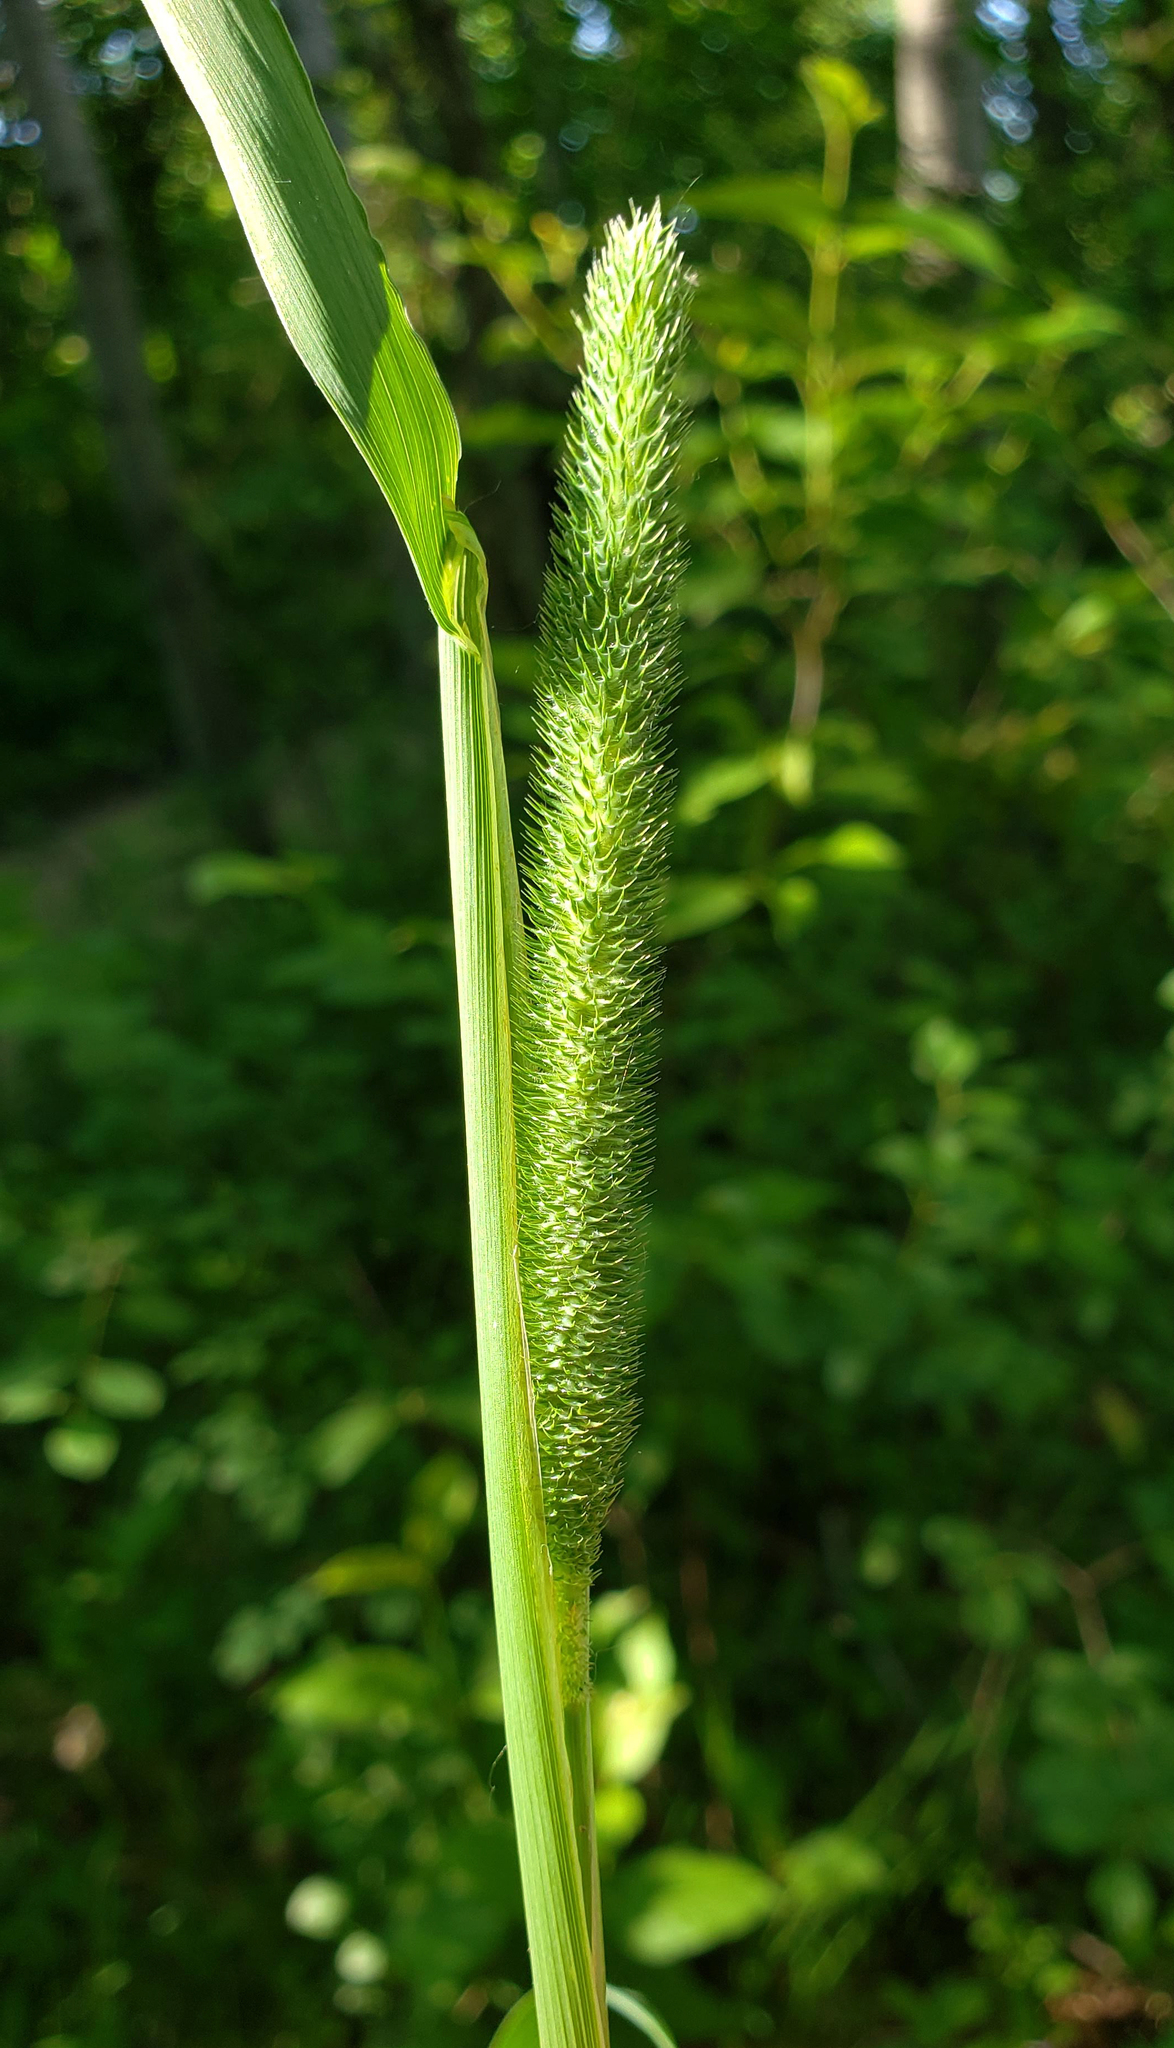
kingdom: Plantae
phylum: Tracheophyta
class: Liliopsida
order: Poales
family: Poaceae
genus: Phleum
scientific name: Phleum pratense
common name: Timothy grass
